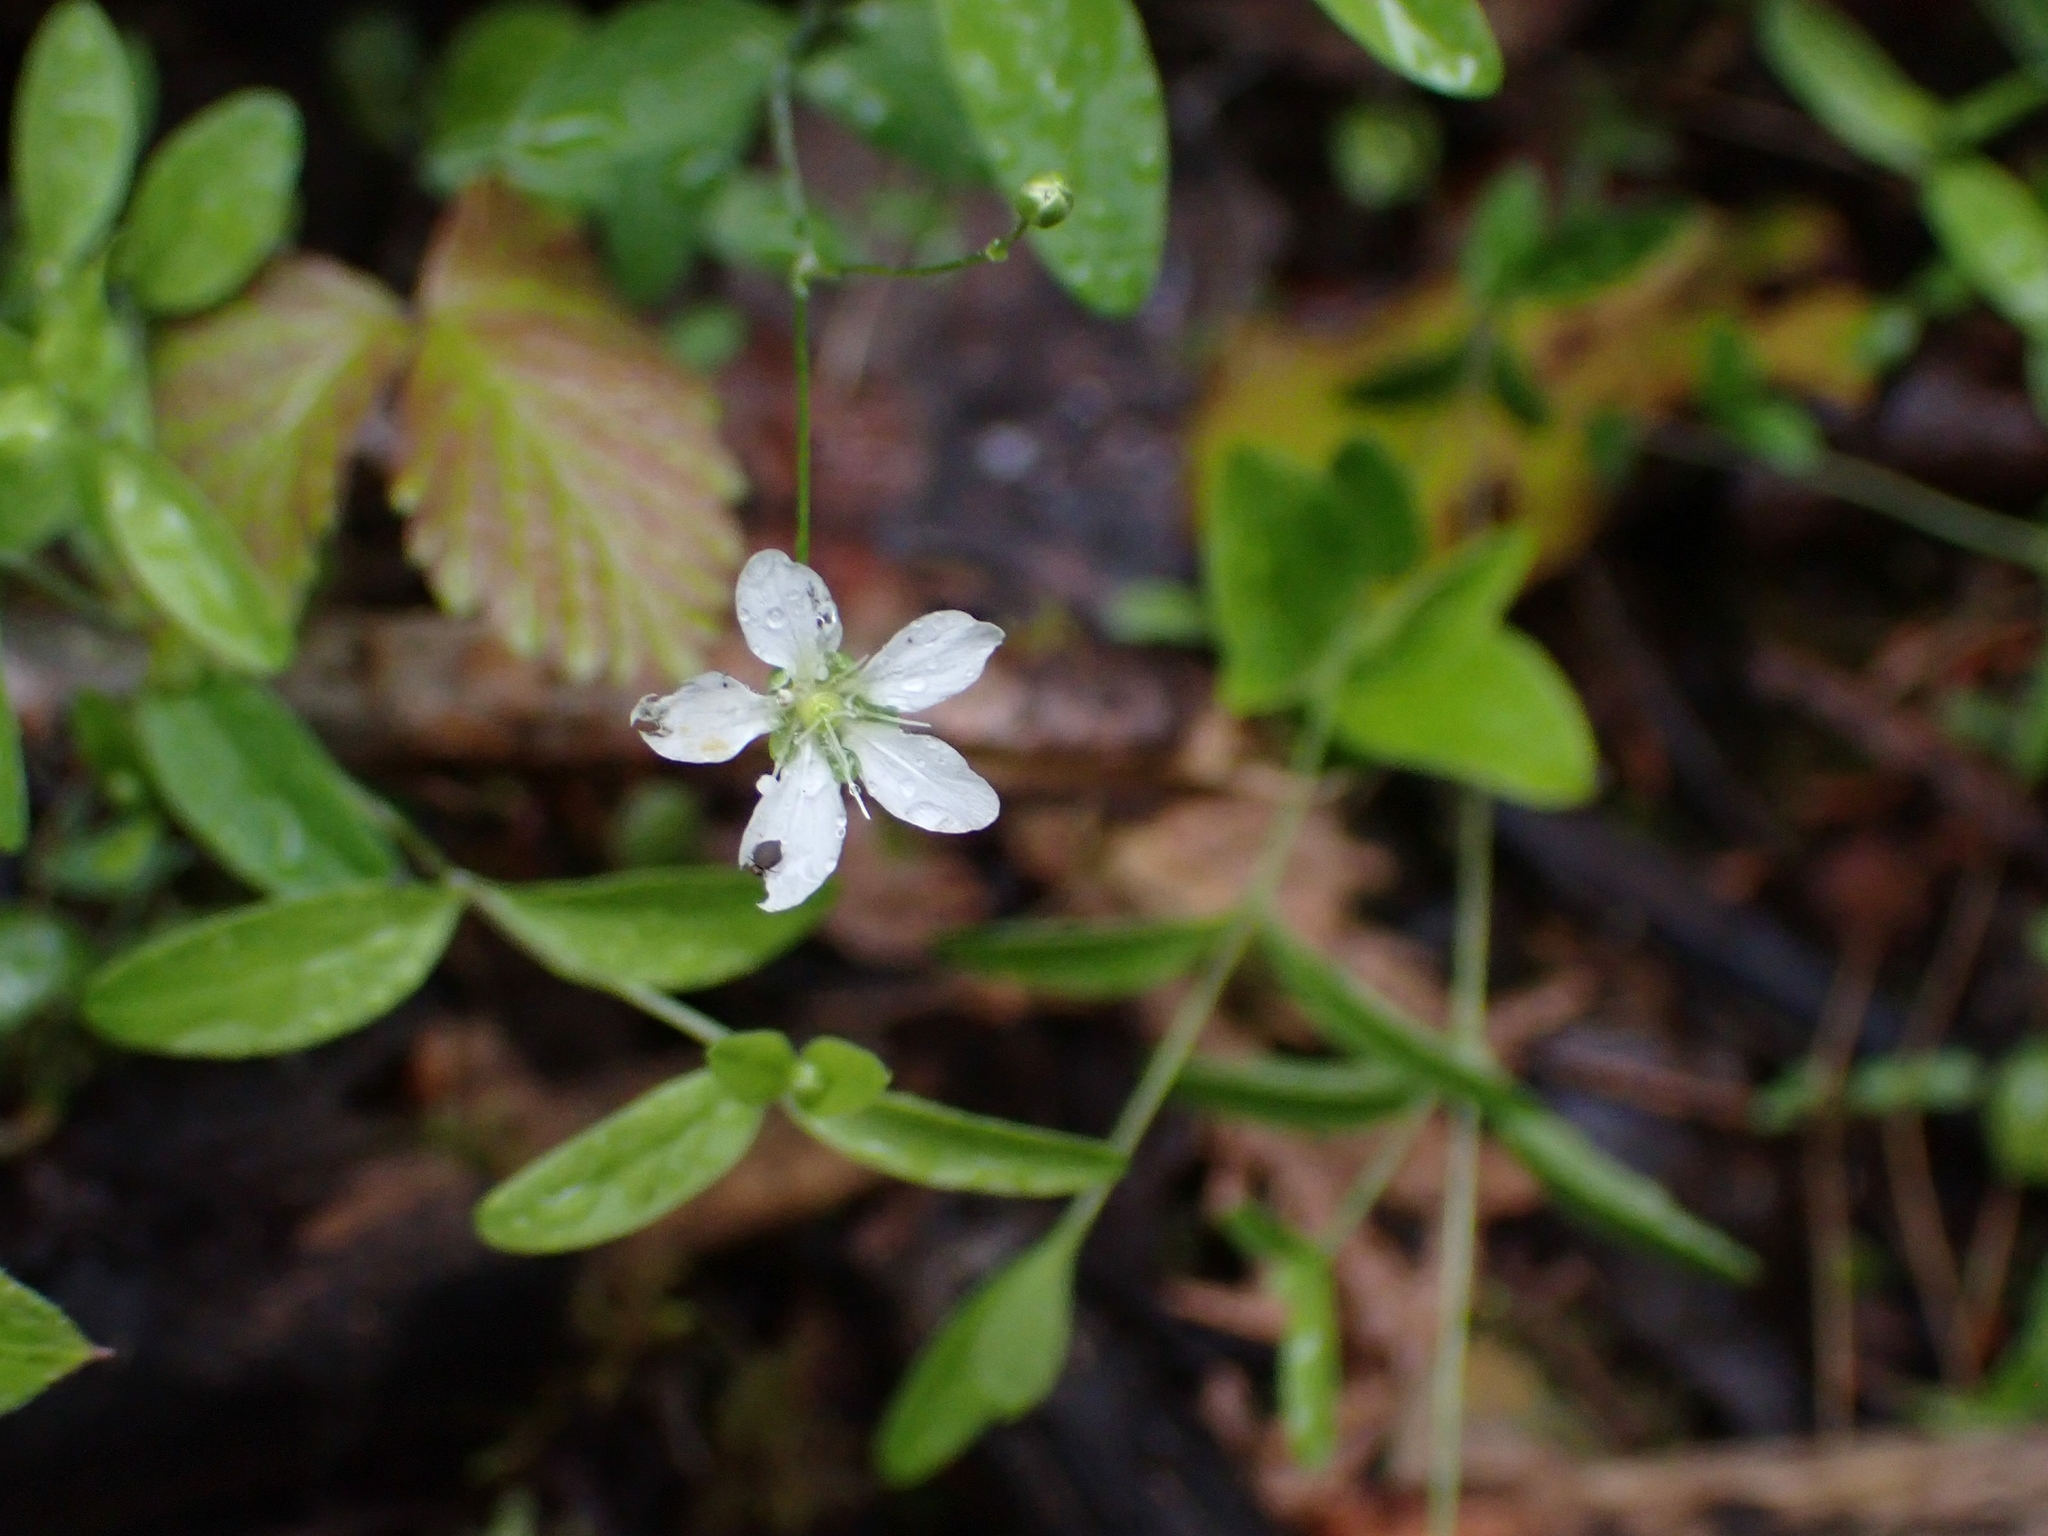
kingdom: Plantae
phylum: Tracheophyta
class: Magnoliopsida
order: Caryophyllales
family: Caryophyllaceae
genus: Moehringia
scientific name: Moehringia lateriflora
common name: Blunt-leaved sandwort
